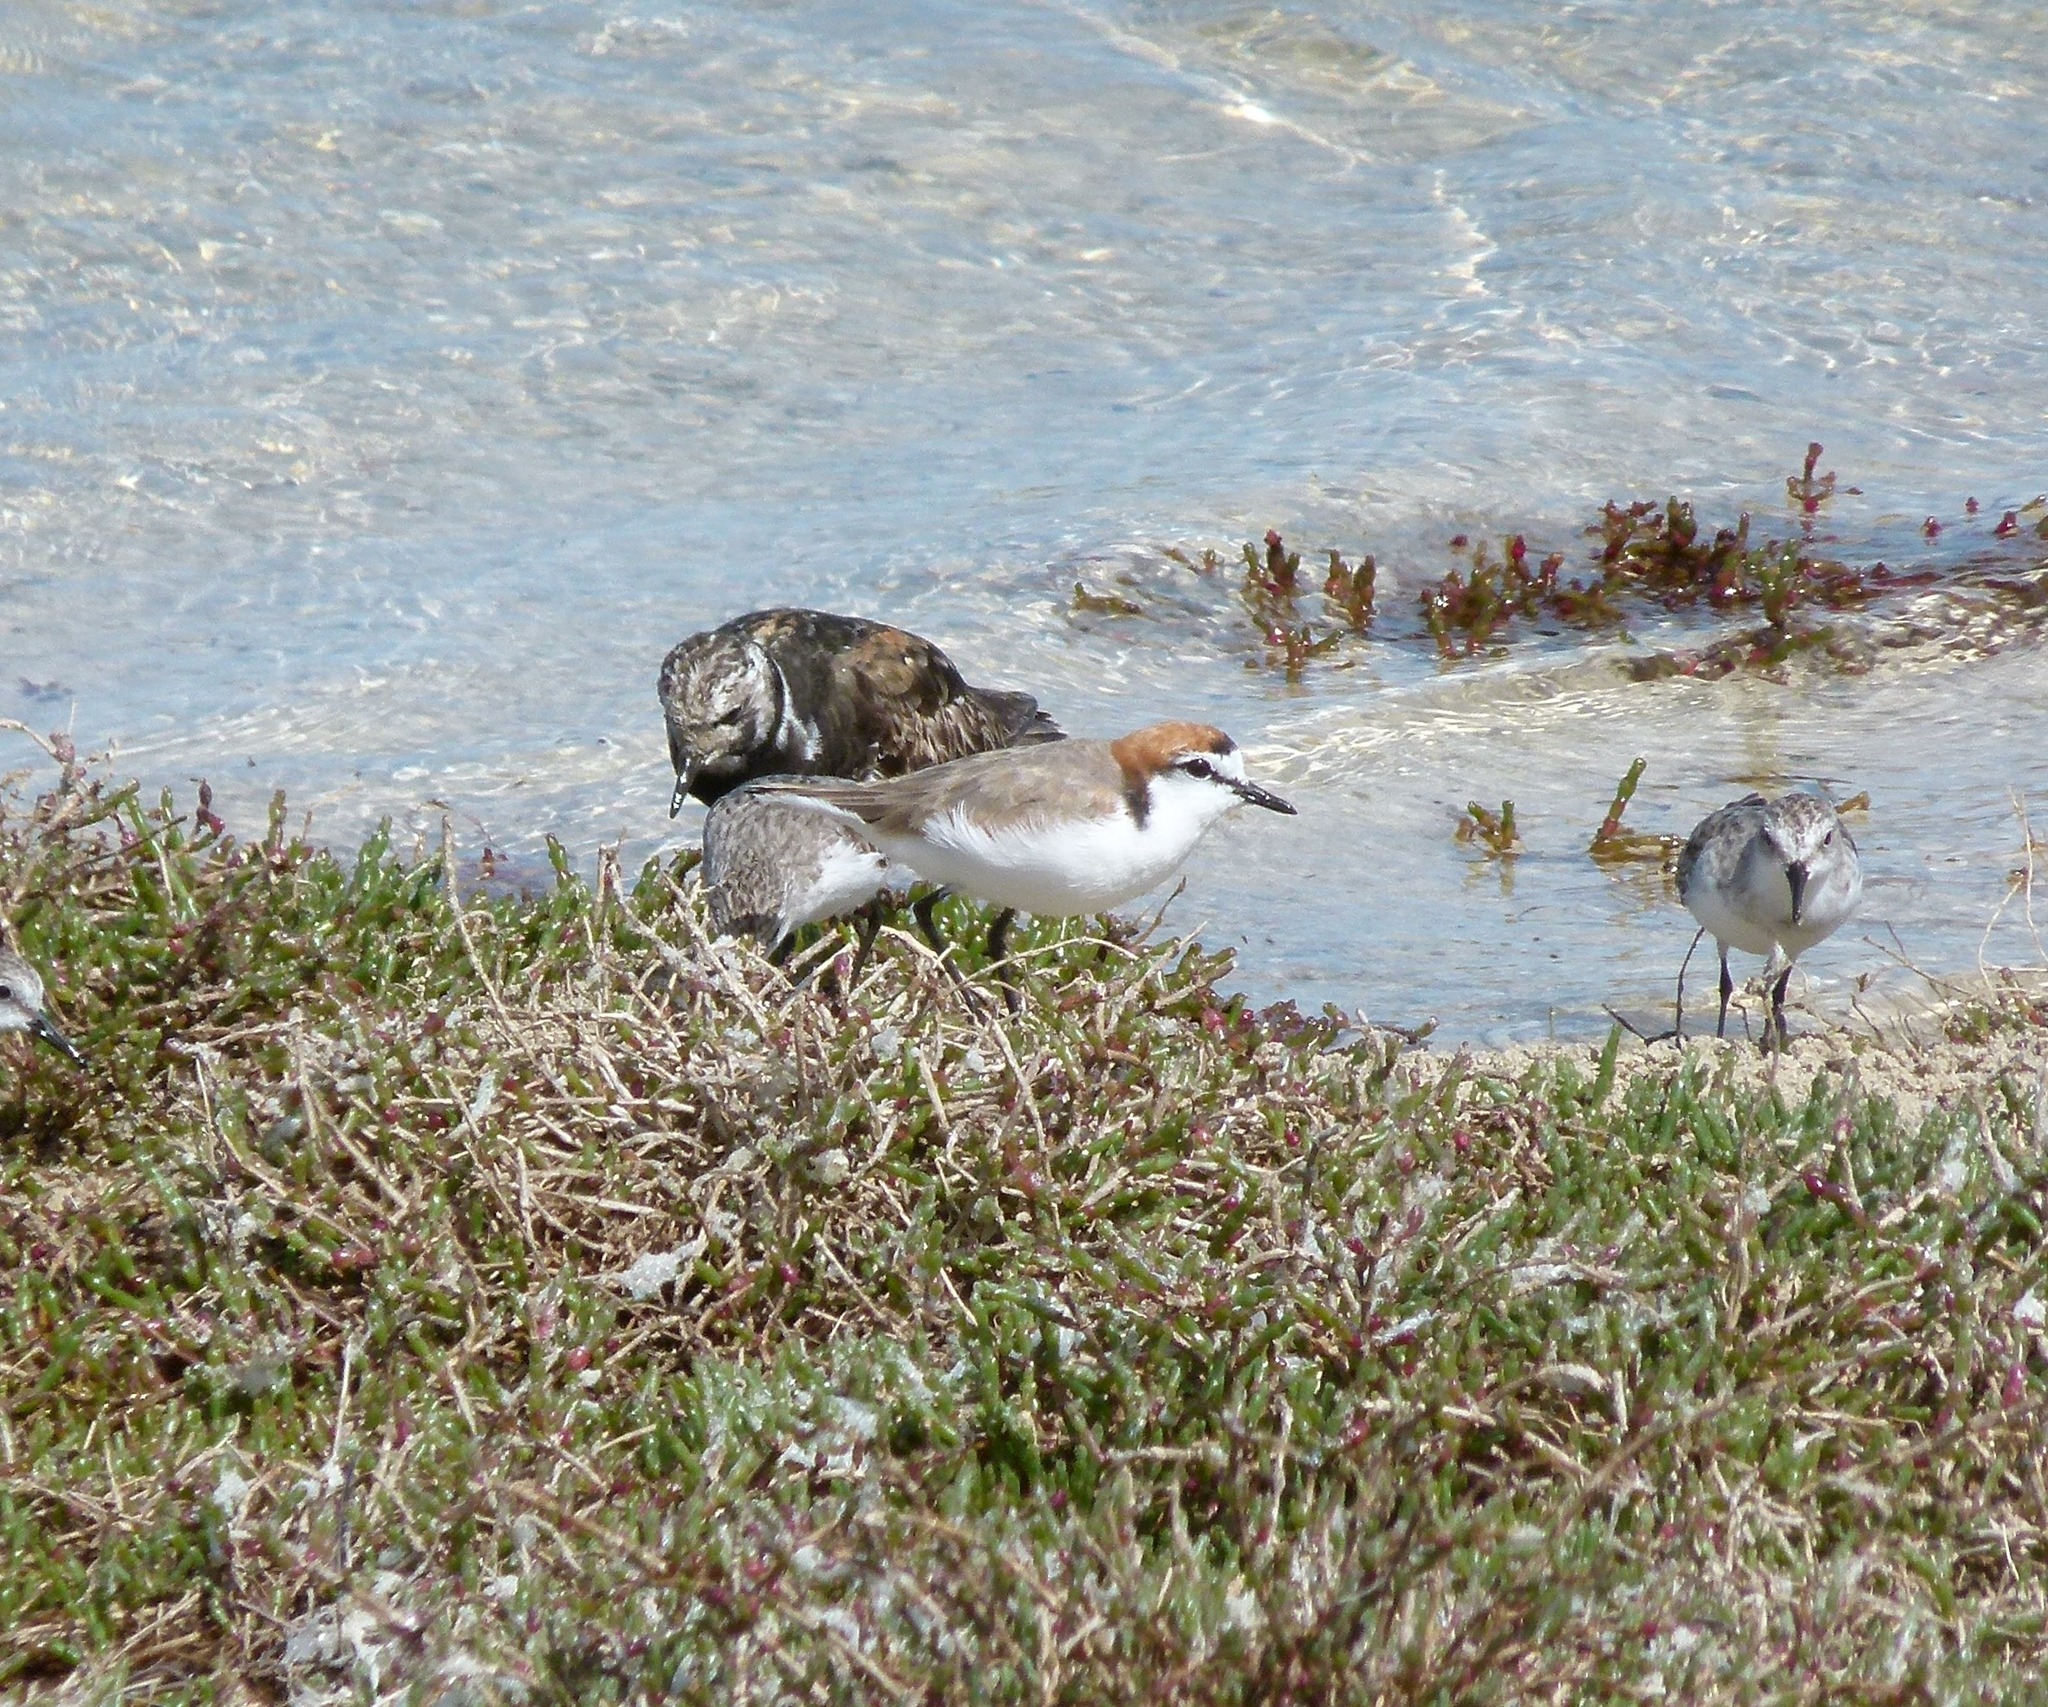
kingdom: Animalia
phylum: Chordata
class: Aves
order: Charadriiformes
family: Charadriidae
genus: Anarhynchus
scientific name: Anarhynchus
